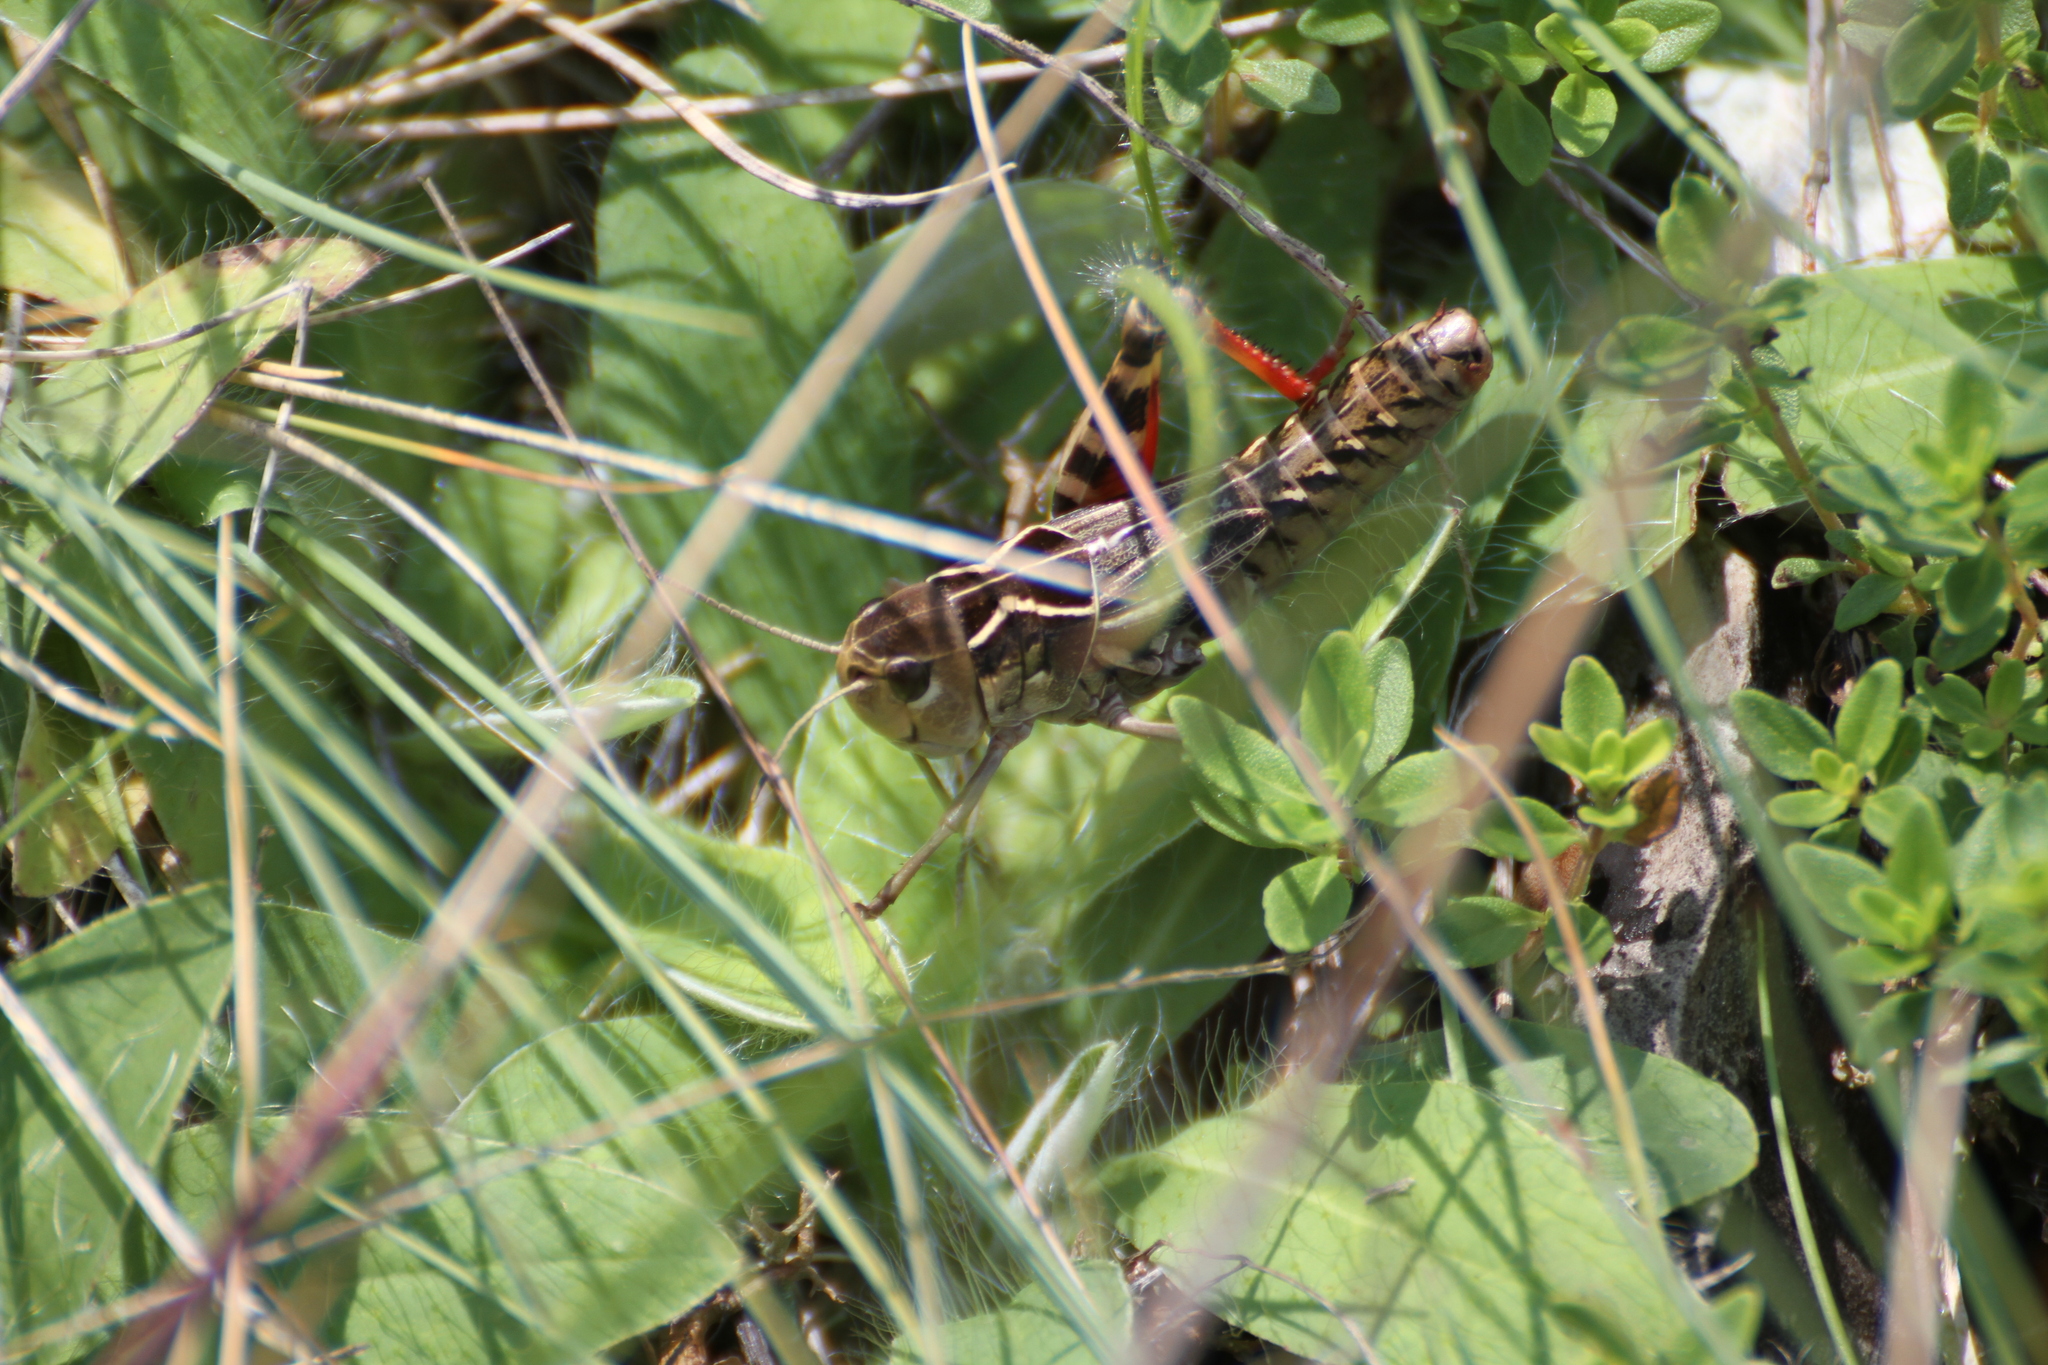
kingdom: Animalia
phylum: Arthropoda
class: Insecta
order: Orthoptera
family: Acrididae
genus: Arcyptera
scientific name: Arcyptera kheili
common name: Provence banded grasshopper
